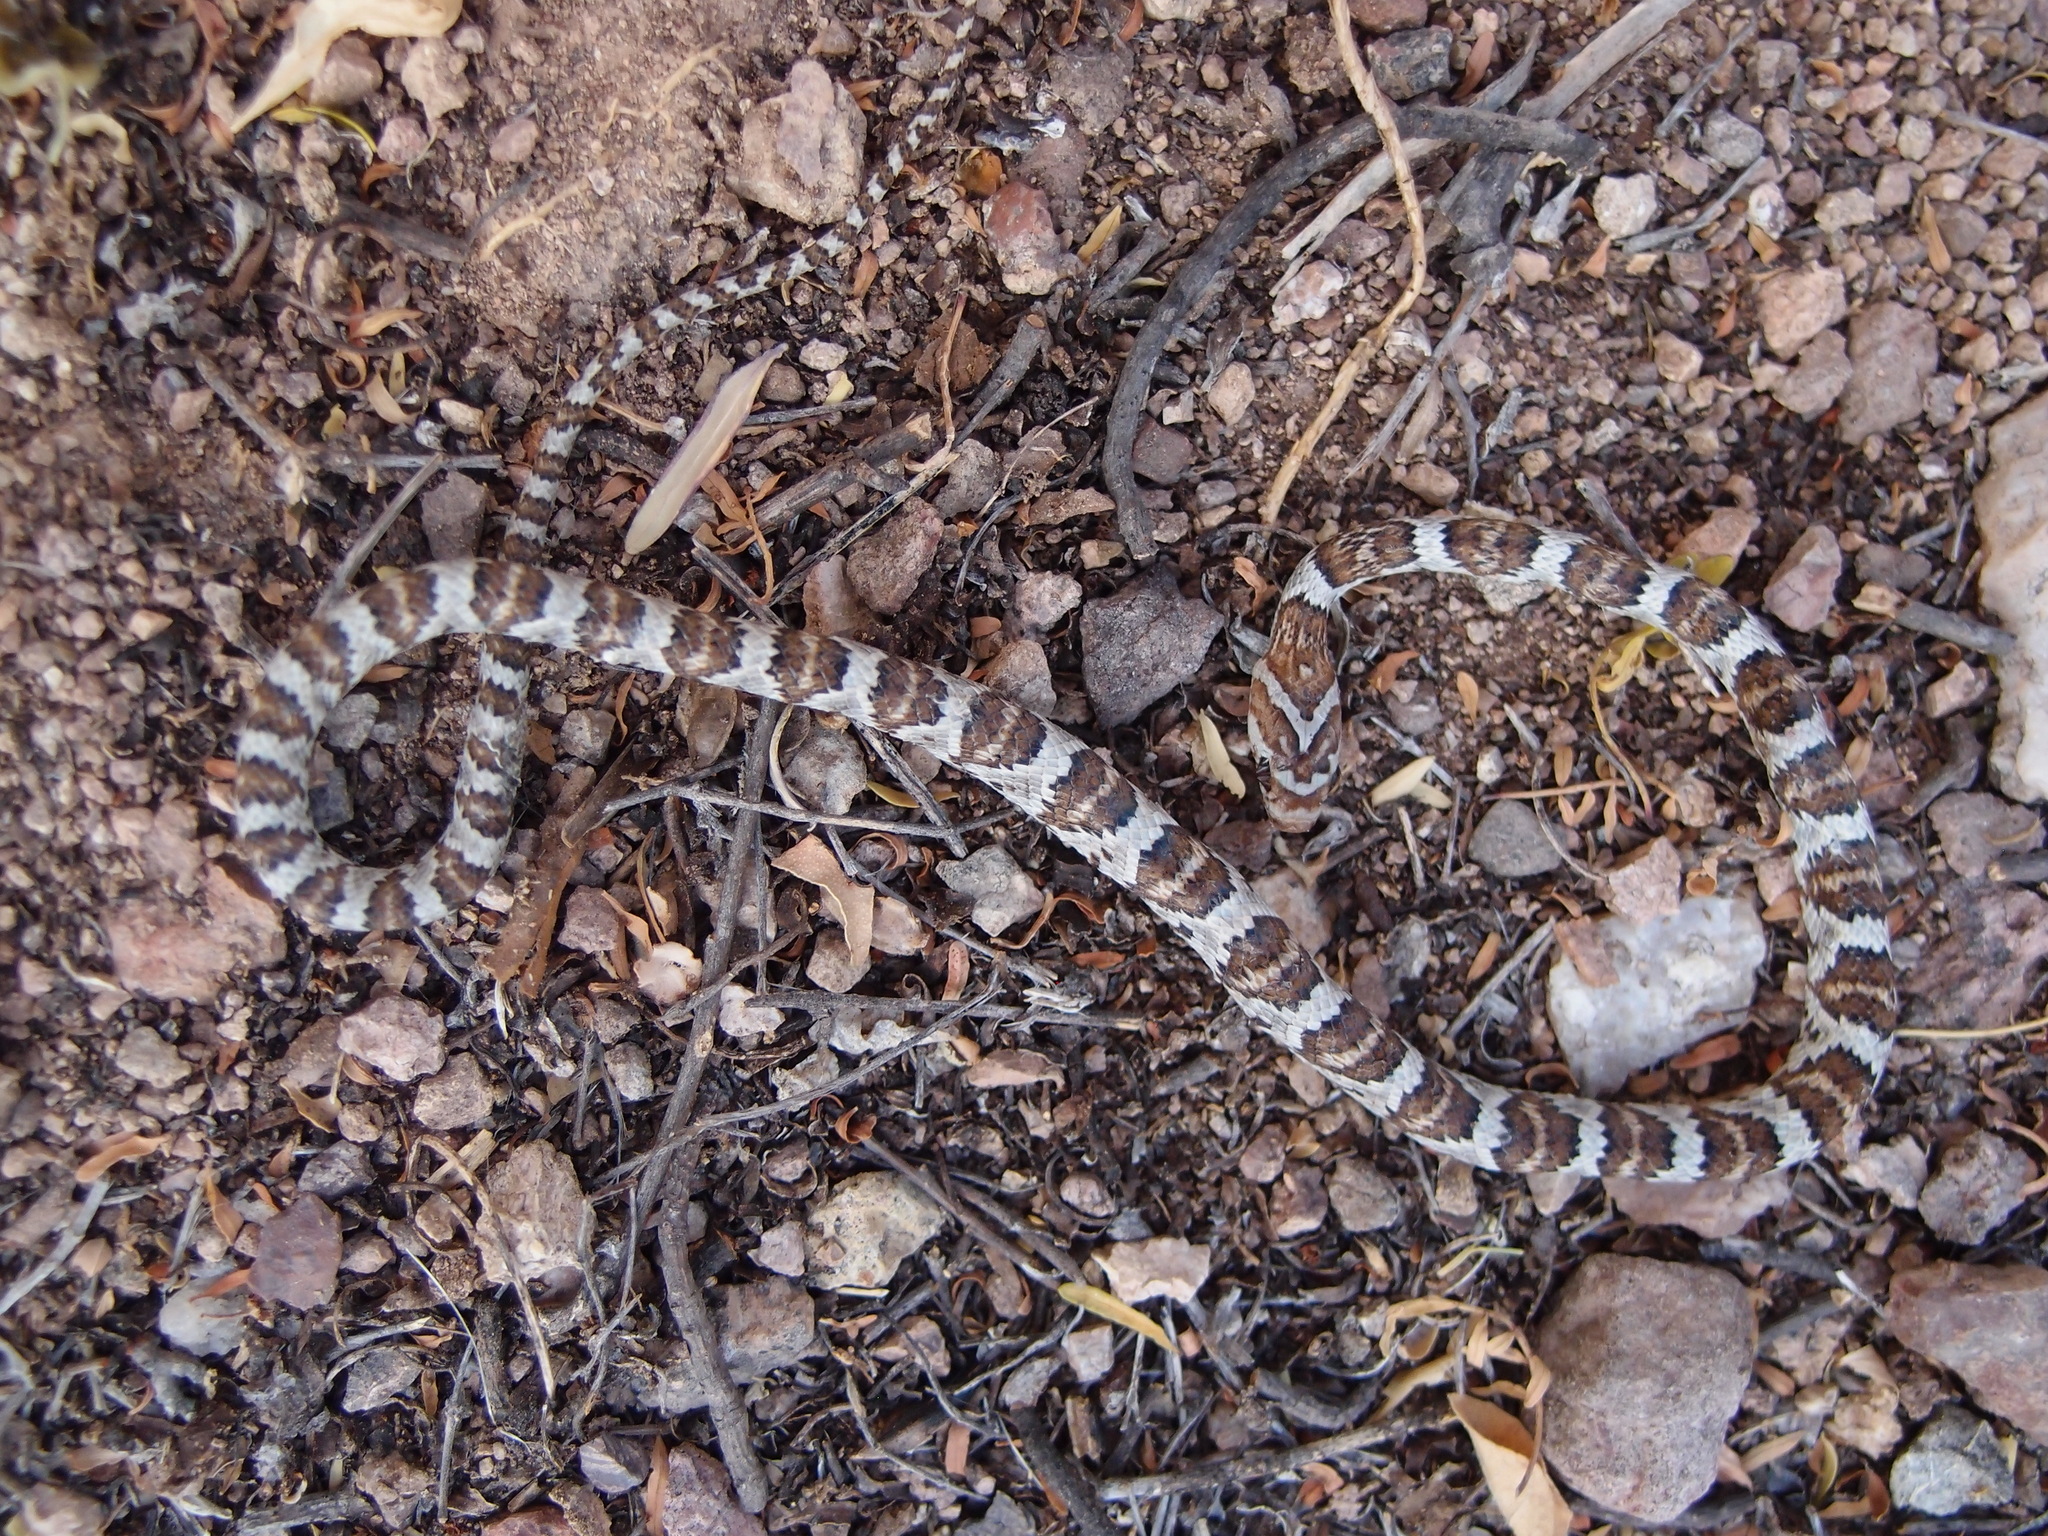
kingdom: Animalia
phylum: Chordata
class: Squamata
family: Colubridae
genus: Trimorphodon
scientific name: Trimorphodon lambda
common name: Sonoran lyre snake
